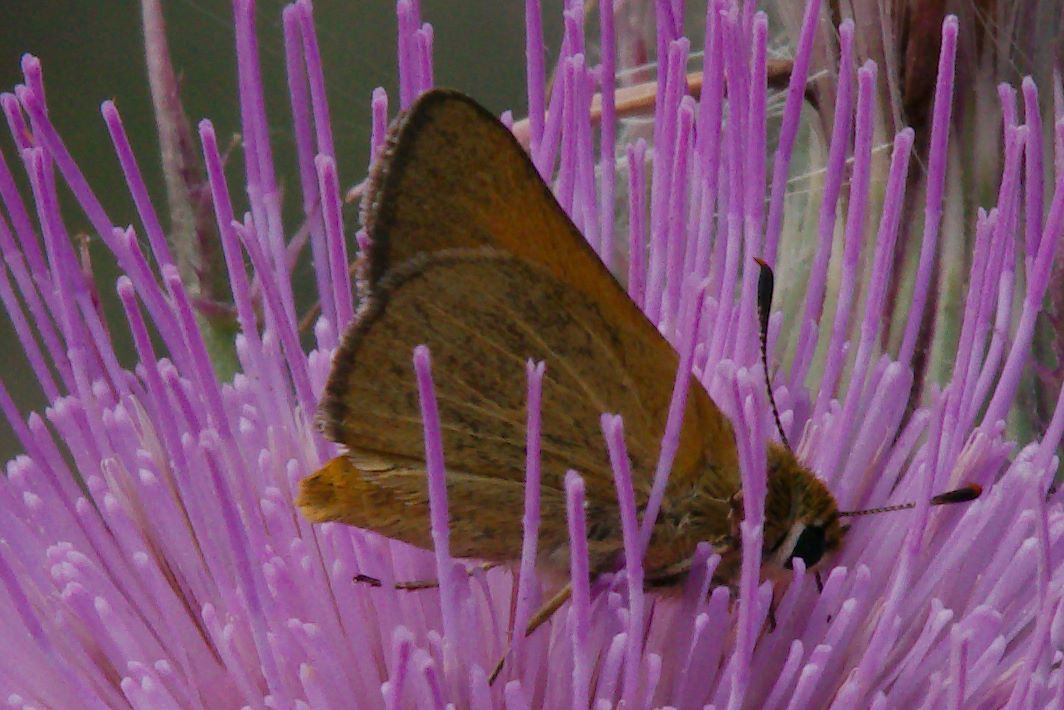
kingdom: Animalia
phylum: Arthropoda
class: Insecta
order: Lepidoptera
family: Hesperiidae
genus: Atrytone
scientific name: Atrytone arogos
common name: Arogos skipper
